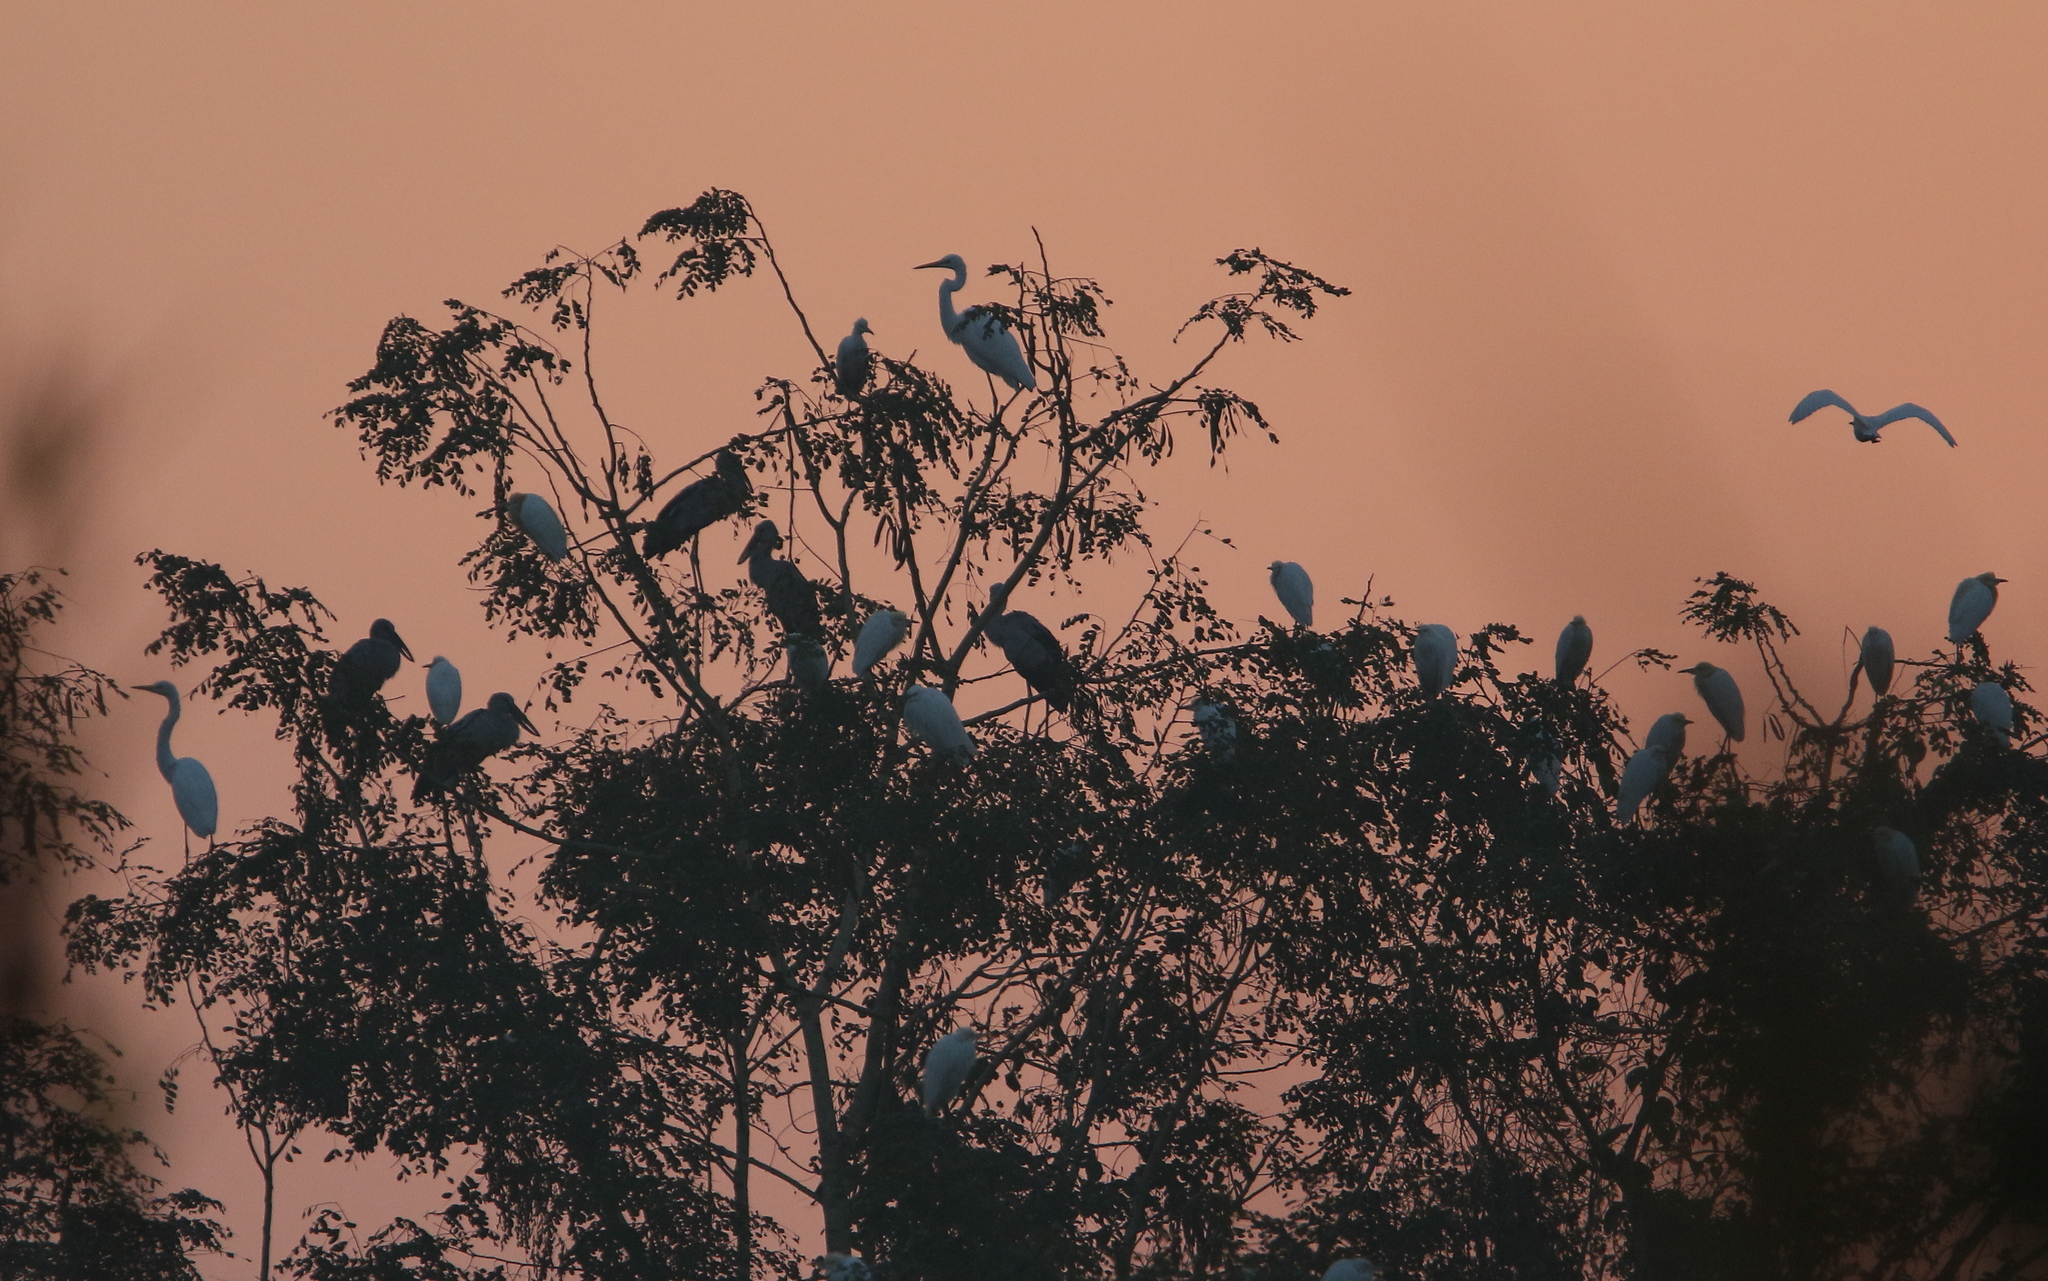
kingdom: Animalia
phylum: Chordata
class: Aves
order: Pelecaniformes
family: Ardeidae
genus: Bubulcus
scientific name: Bubulcus coromandus
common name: Eastern cattle egret
